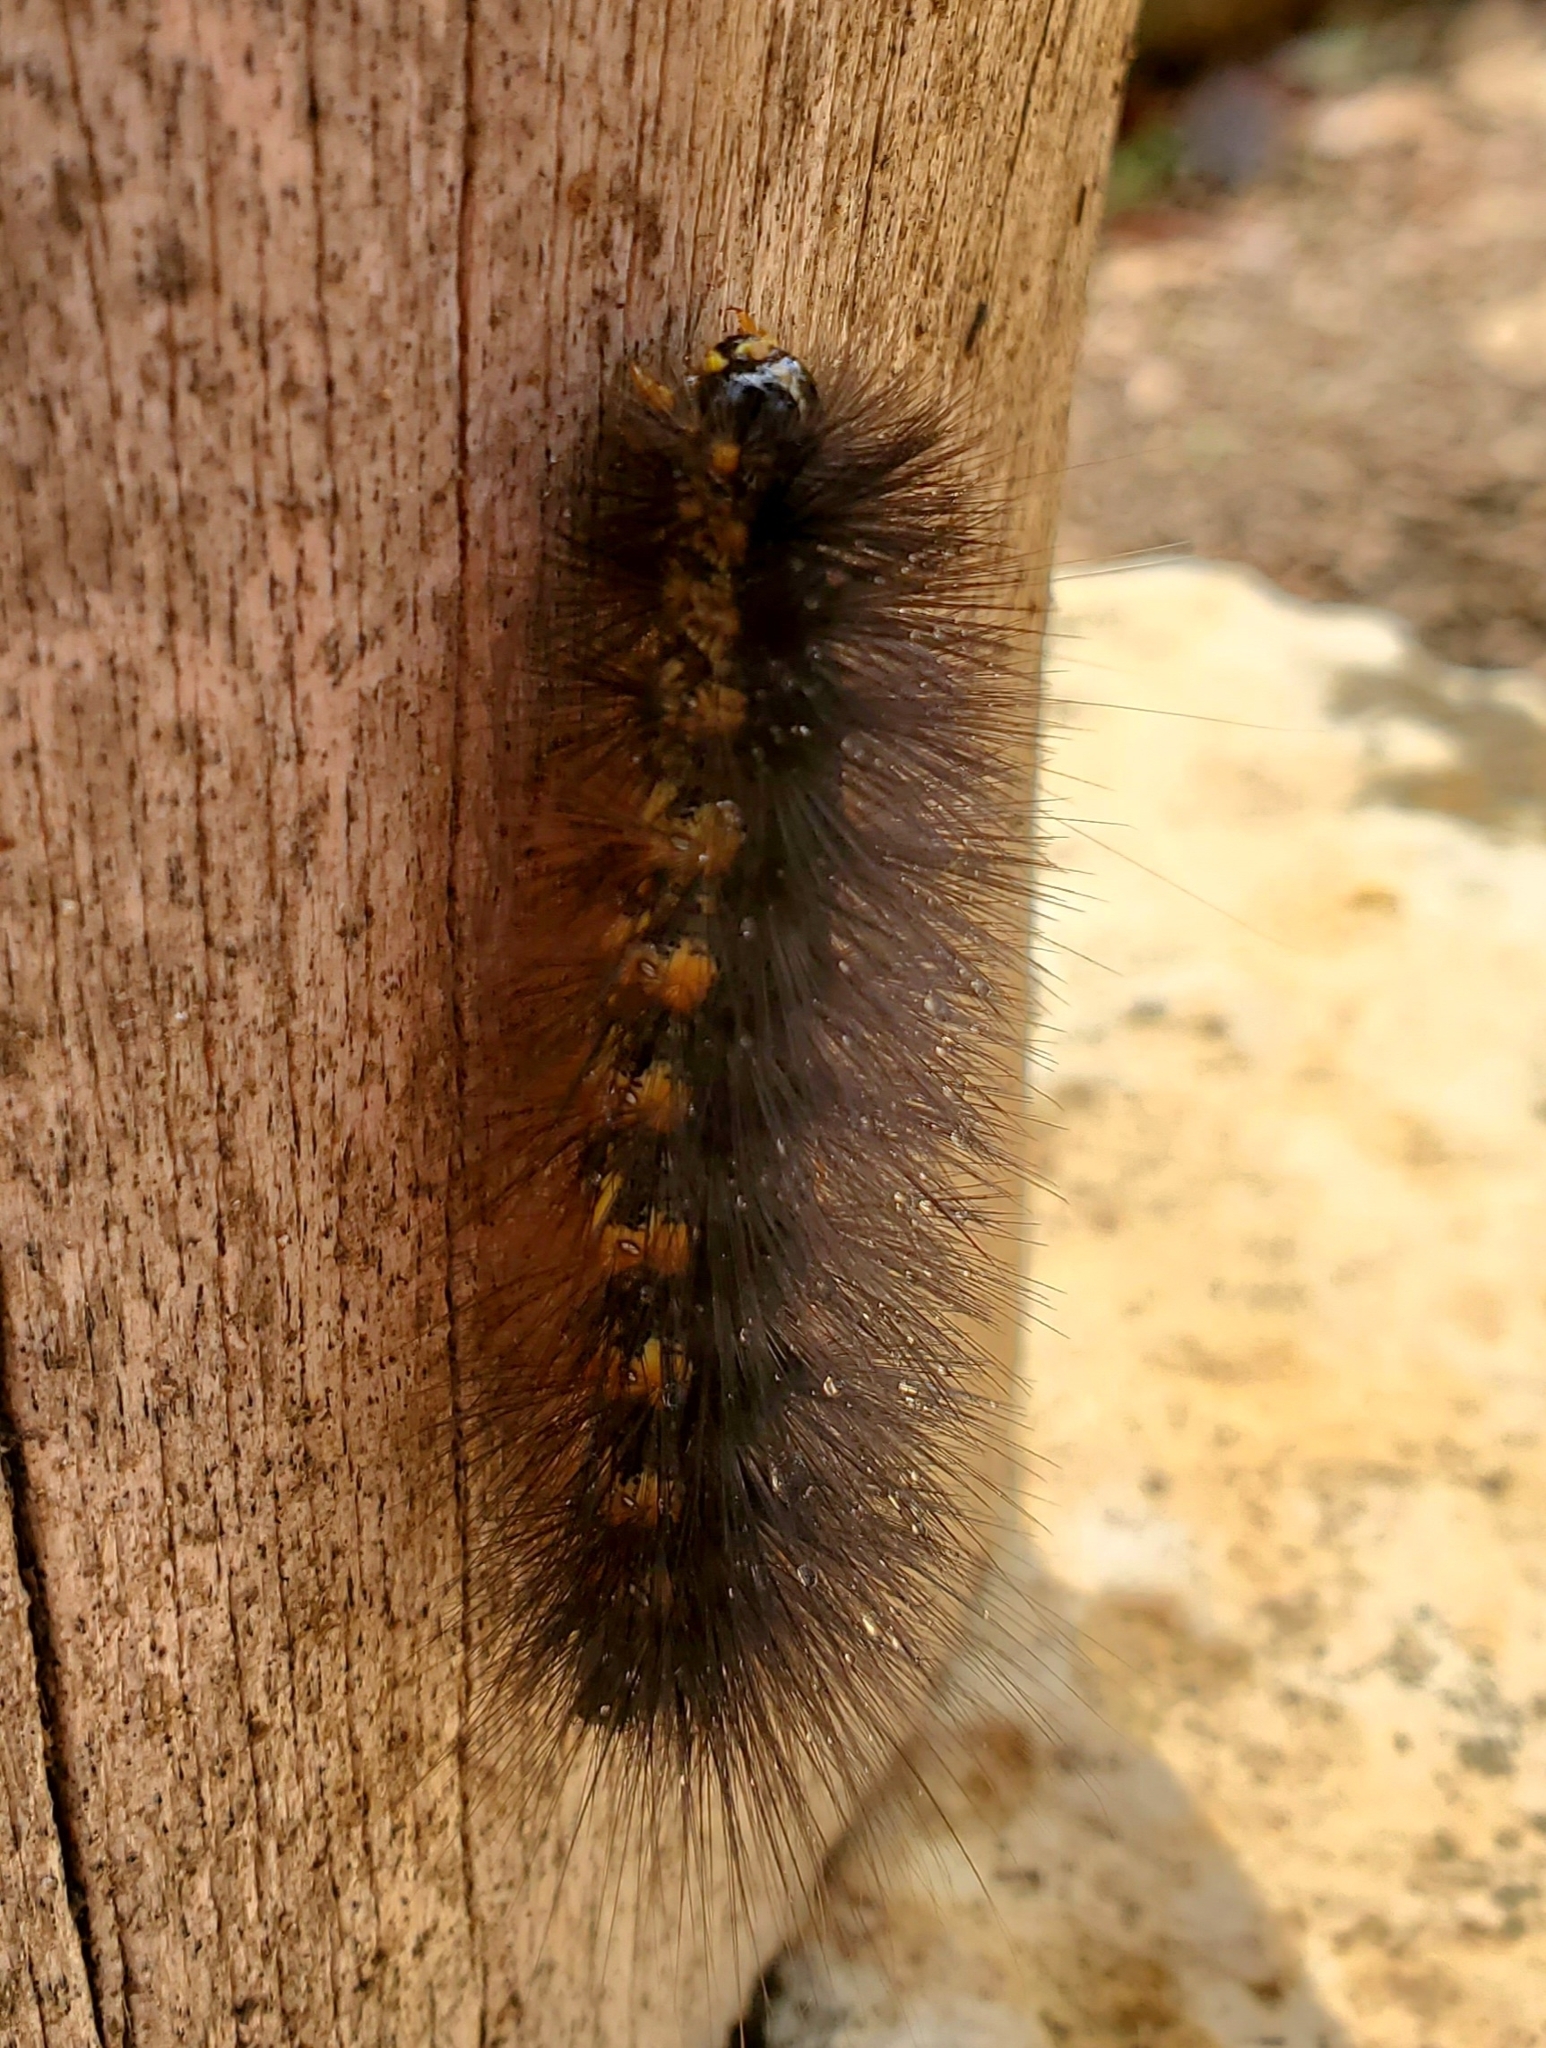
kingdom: Animalia
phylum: Arthropoda
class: Insecta
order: Lepidoptera
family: Erebidae
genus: Estigmene
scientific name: Estigmene acrea
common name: Salt marsh moth
